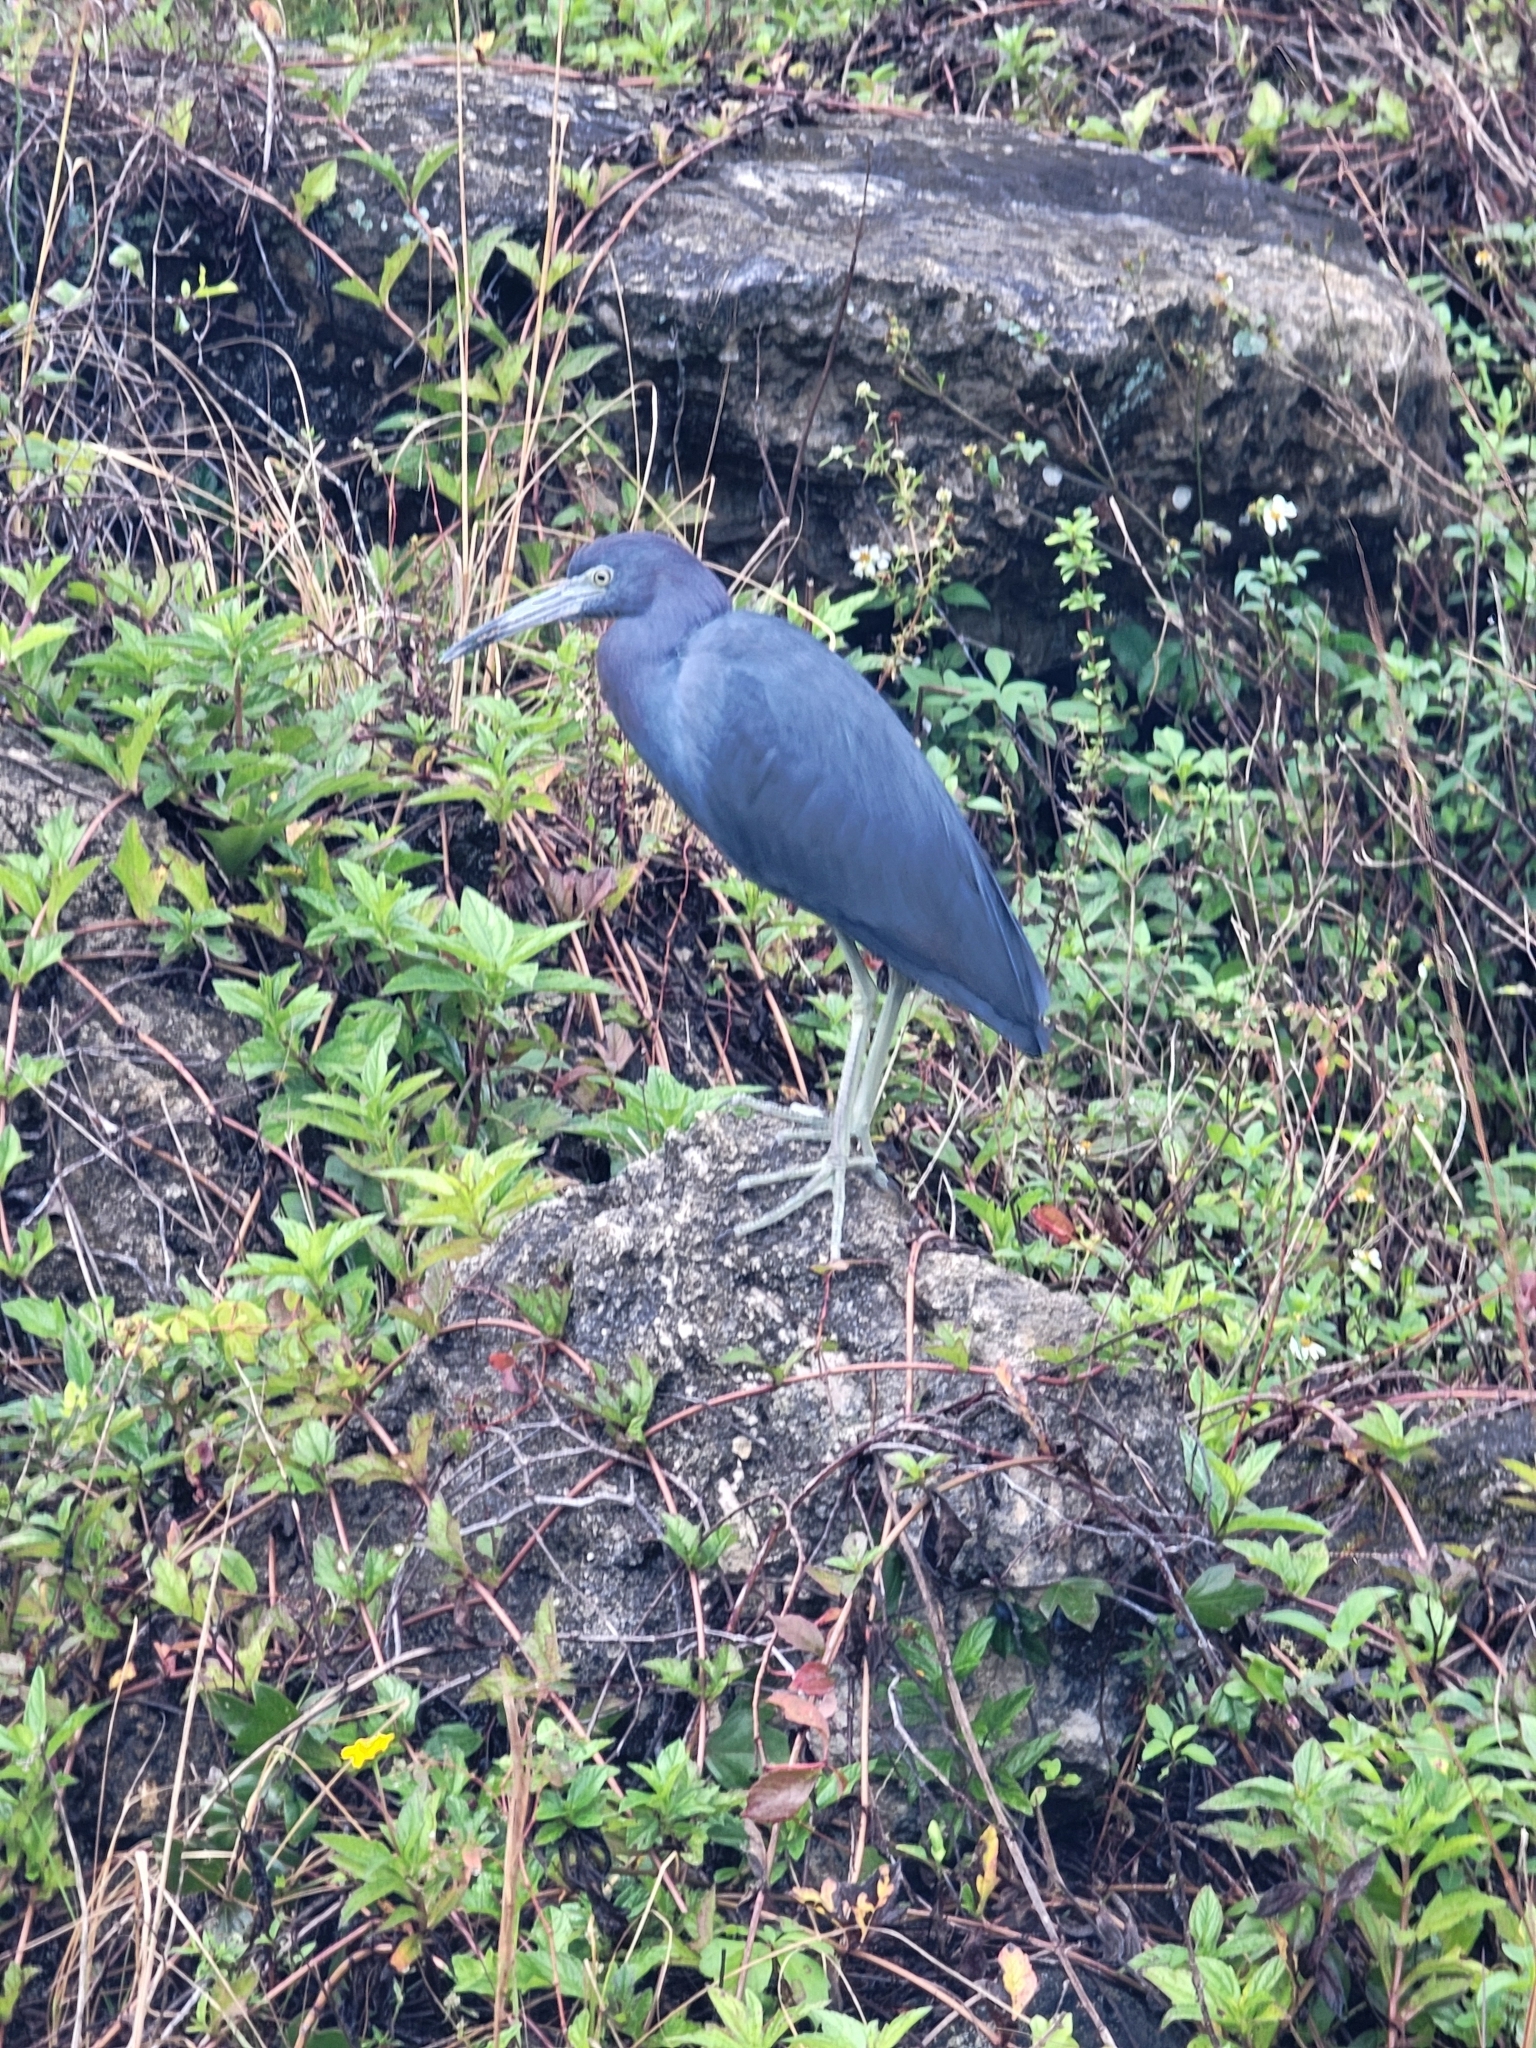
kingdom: Animalia
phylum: Chordata
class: Aves
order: Pelecaniformes
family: Ardeidae
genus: Egretta
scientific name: Egretta caerulea
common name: Little blue heron
